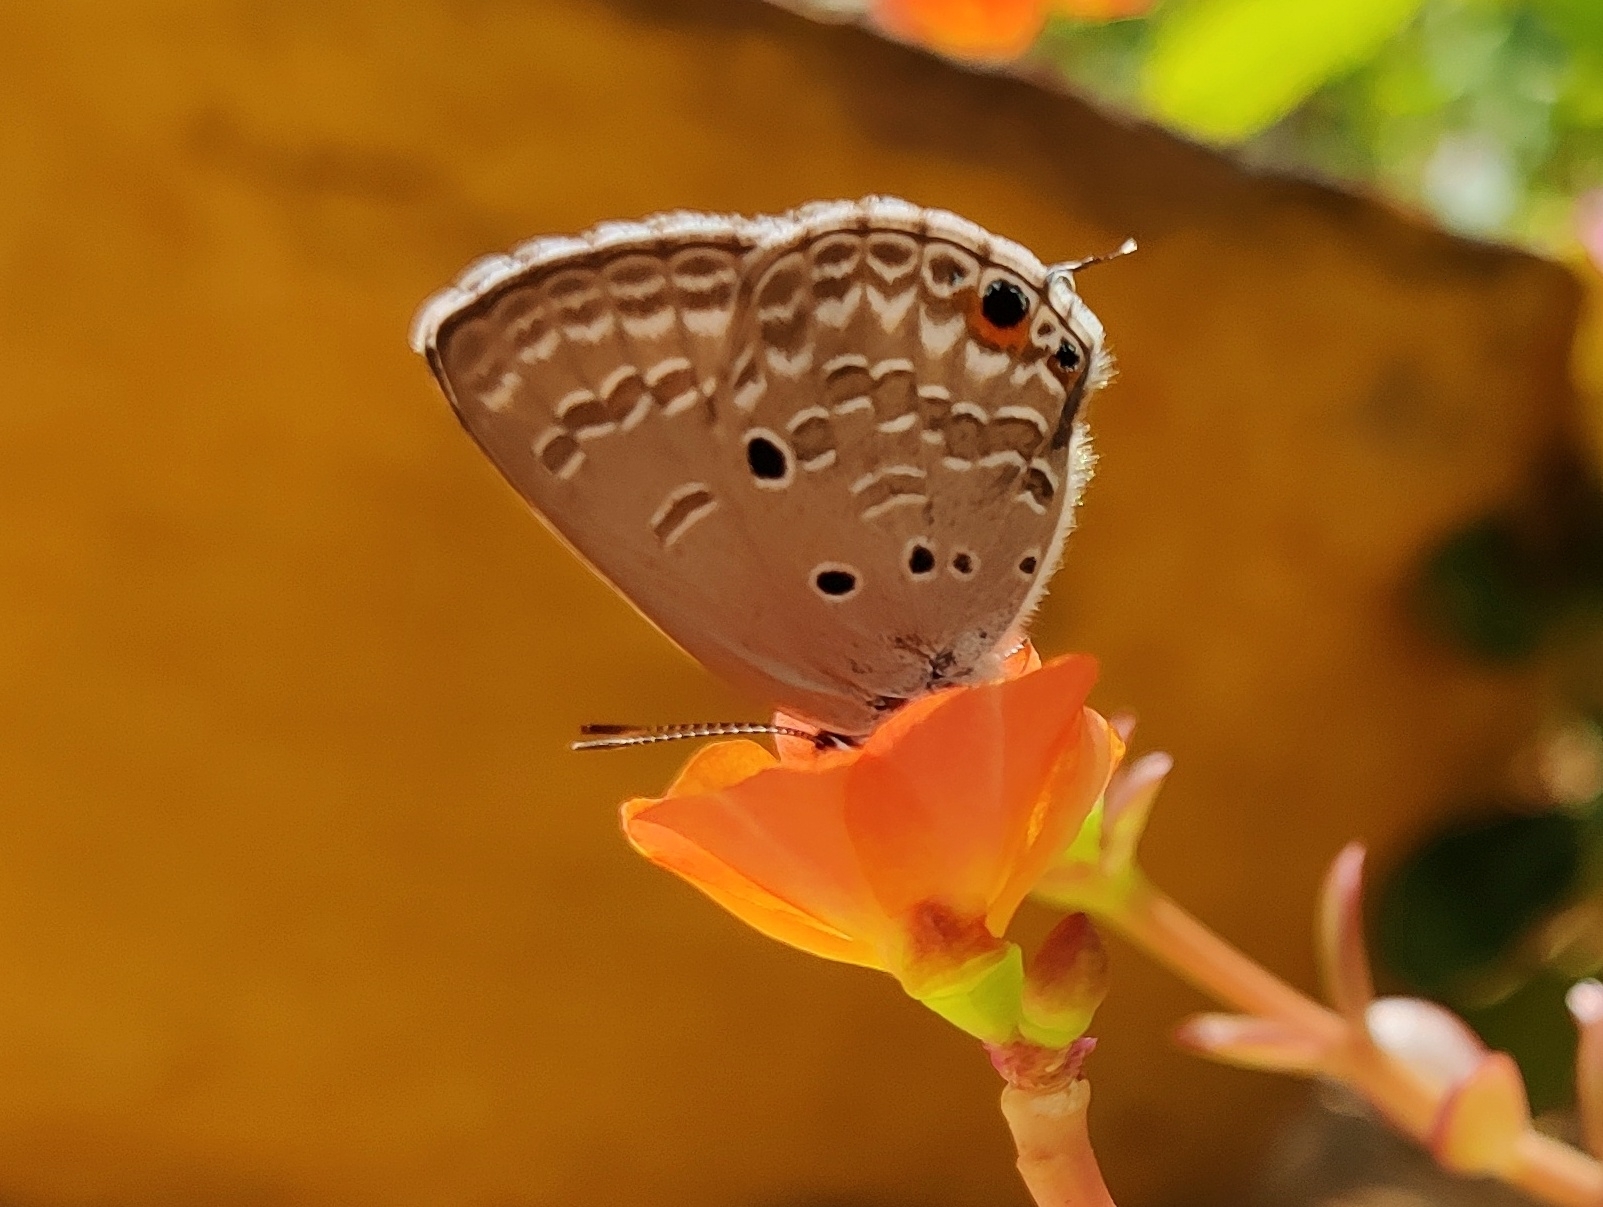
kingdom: Animalia
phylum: Arthropoda
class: Insecta
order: Lepidoptera
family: Lycaenidae
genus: Luthrodes
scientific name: Luthrodes pandava
